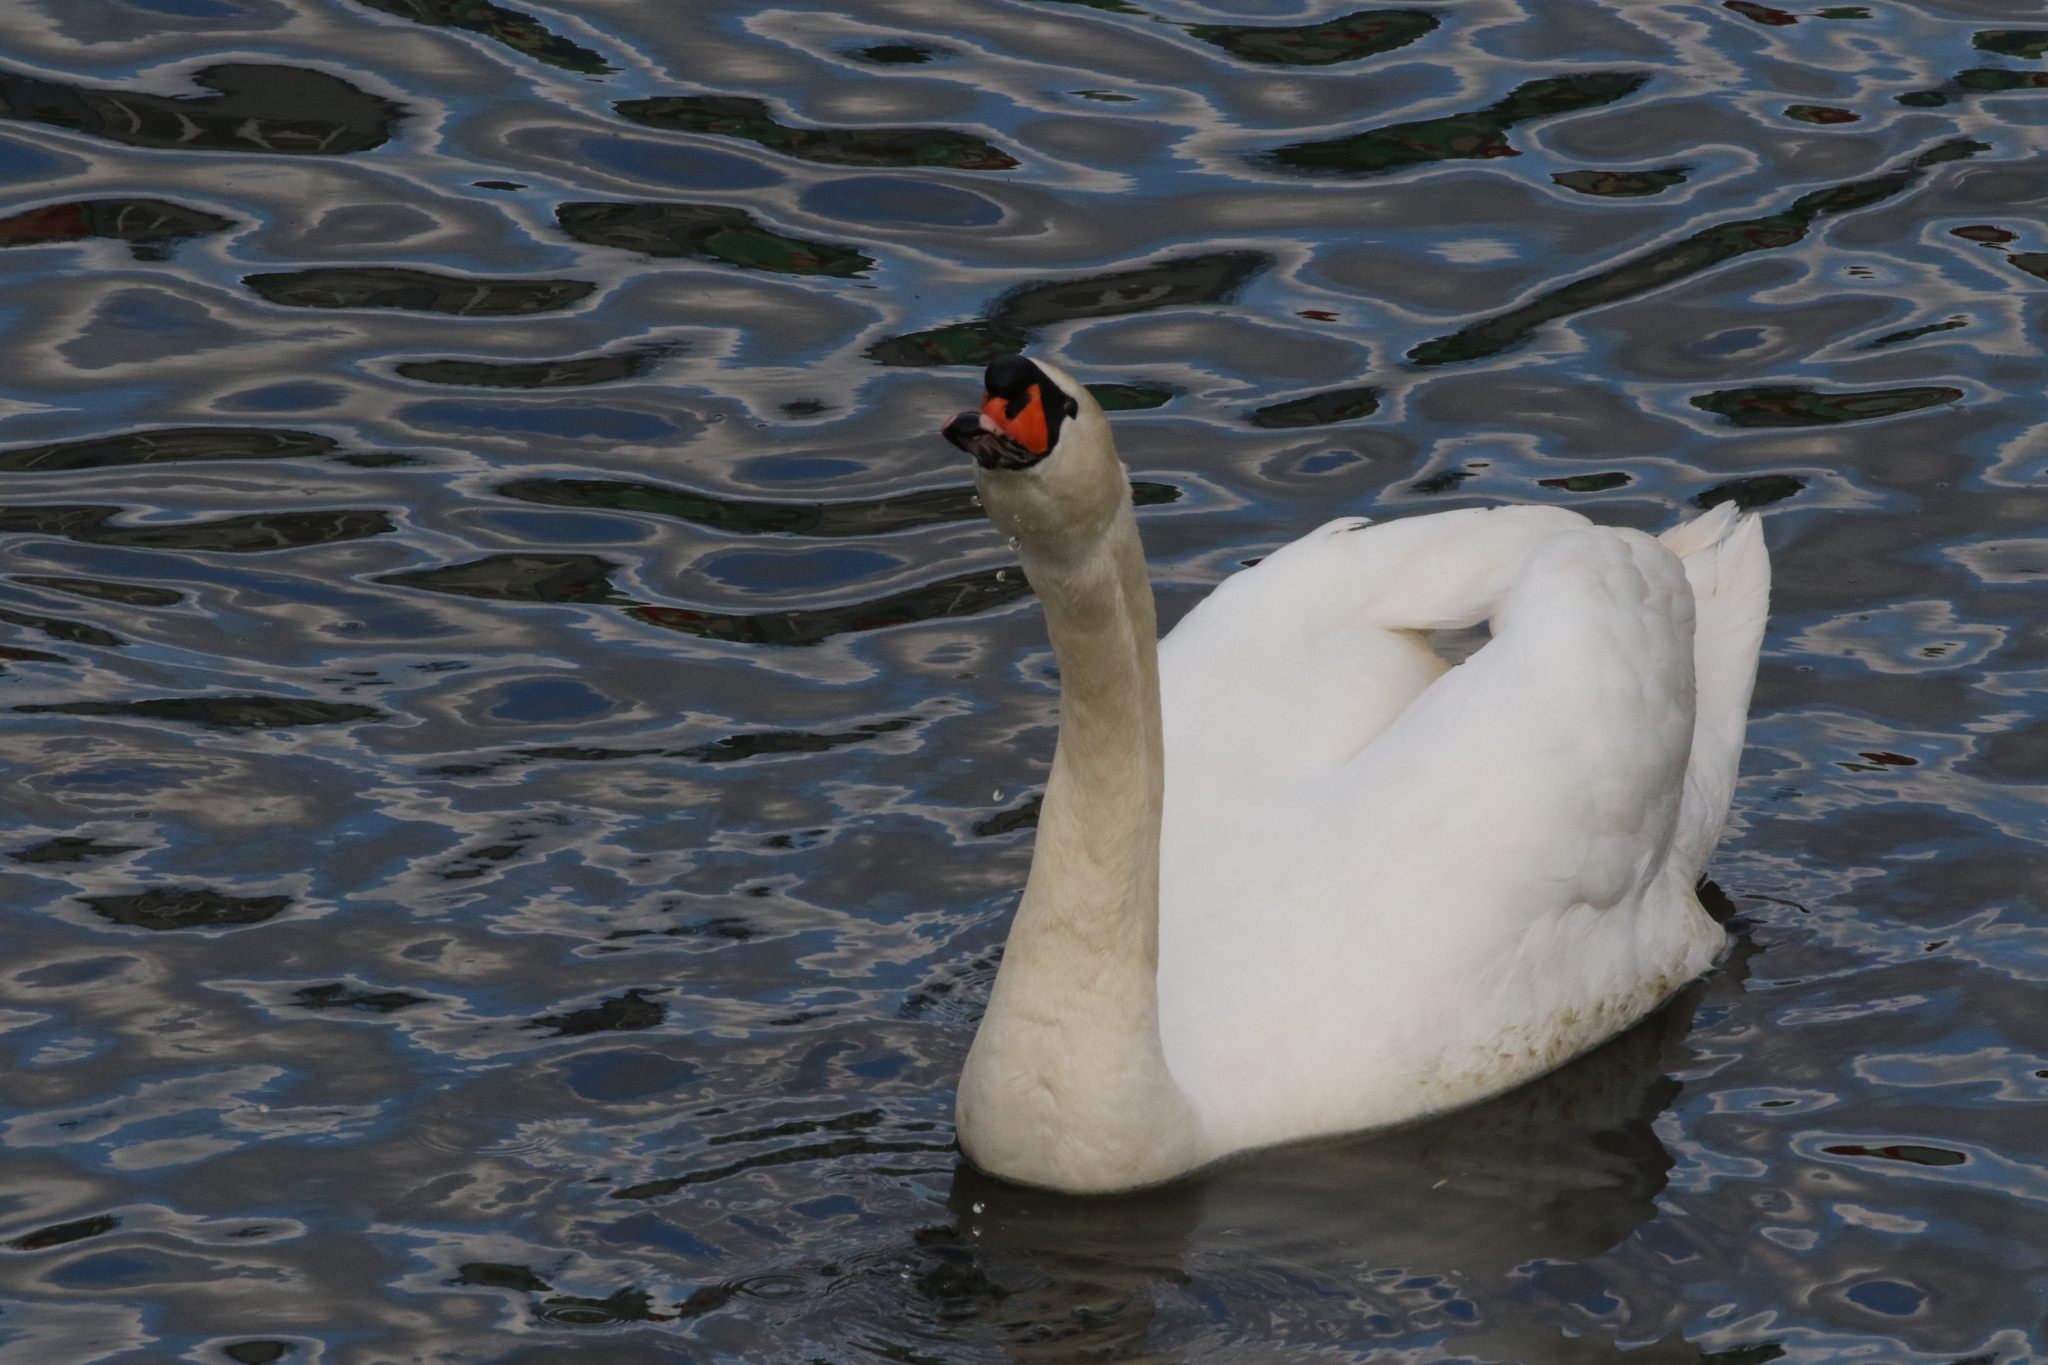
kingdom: Animalia
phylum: Chordata
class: Aves
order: Anseriformes
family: Anatidae
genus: Cygnus
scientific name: Cygnus olor
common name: Mute swan
